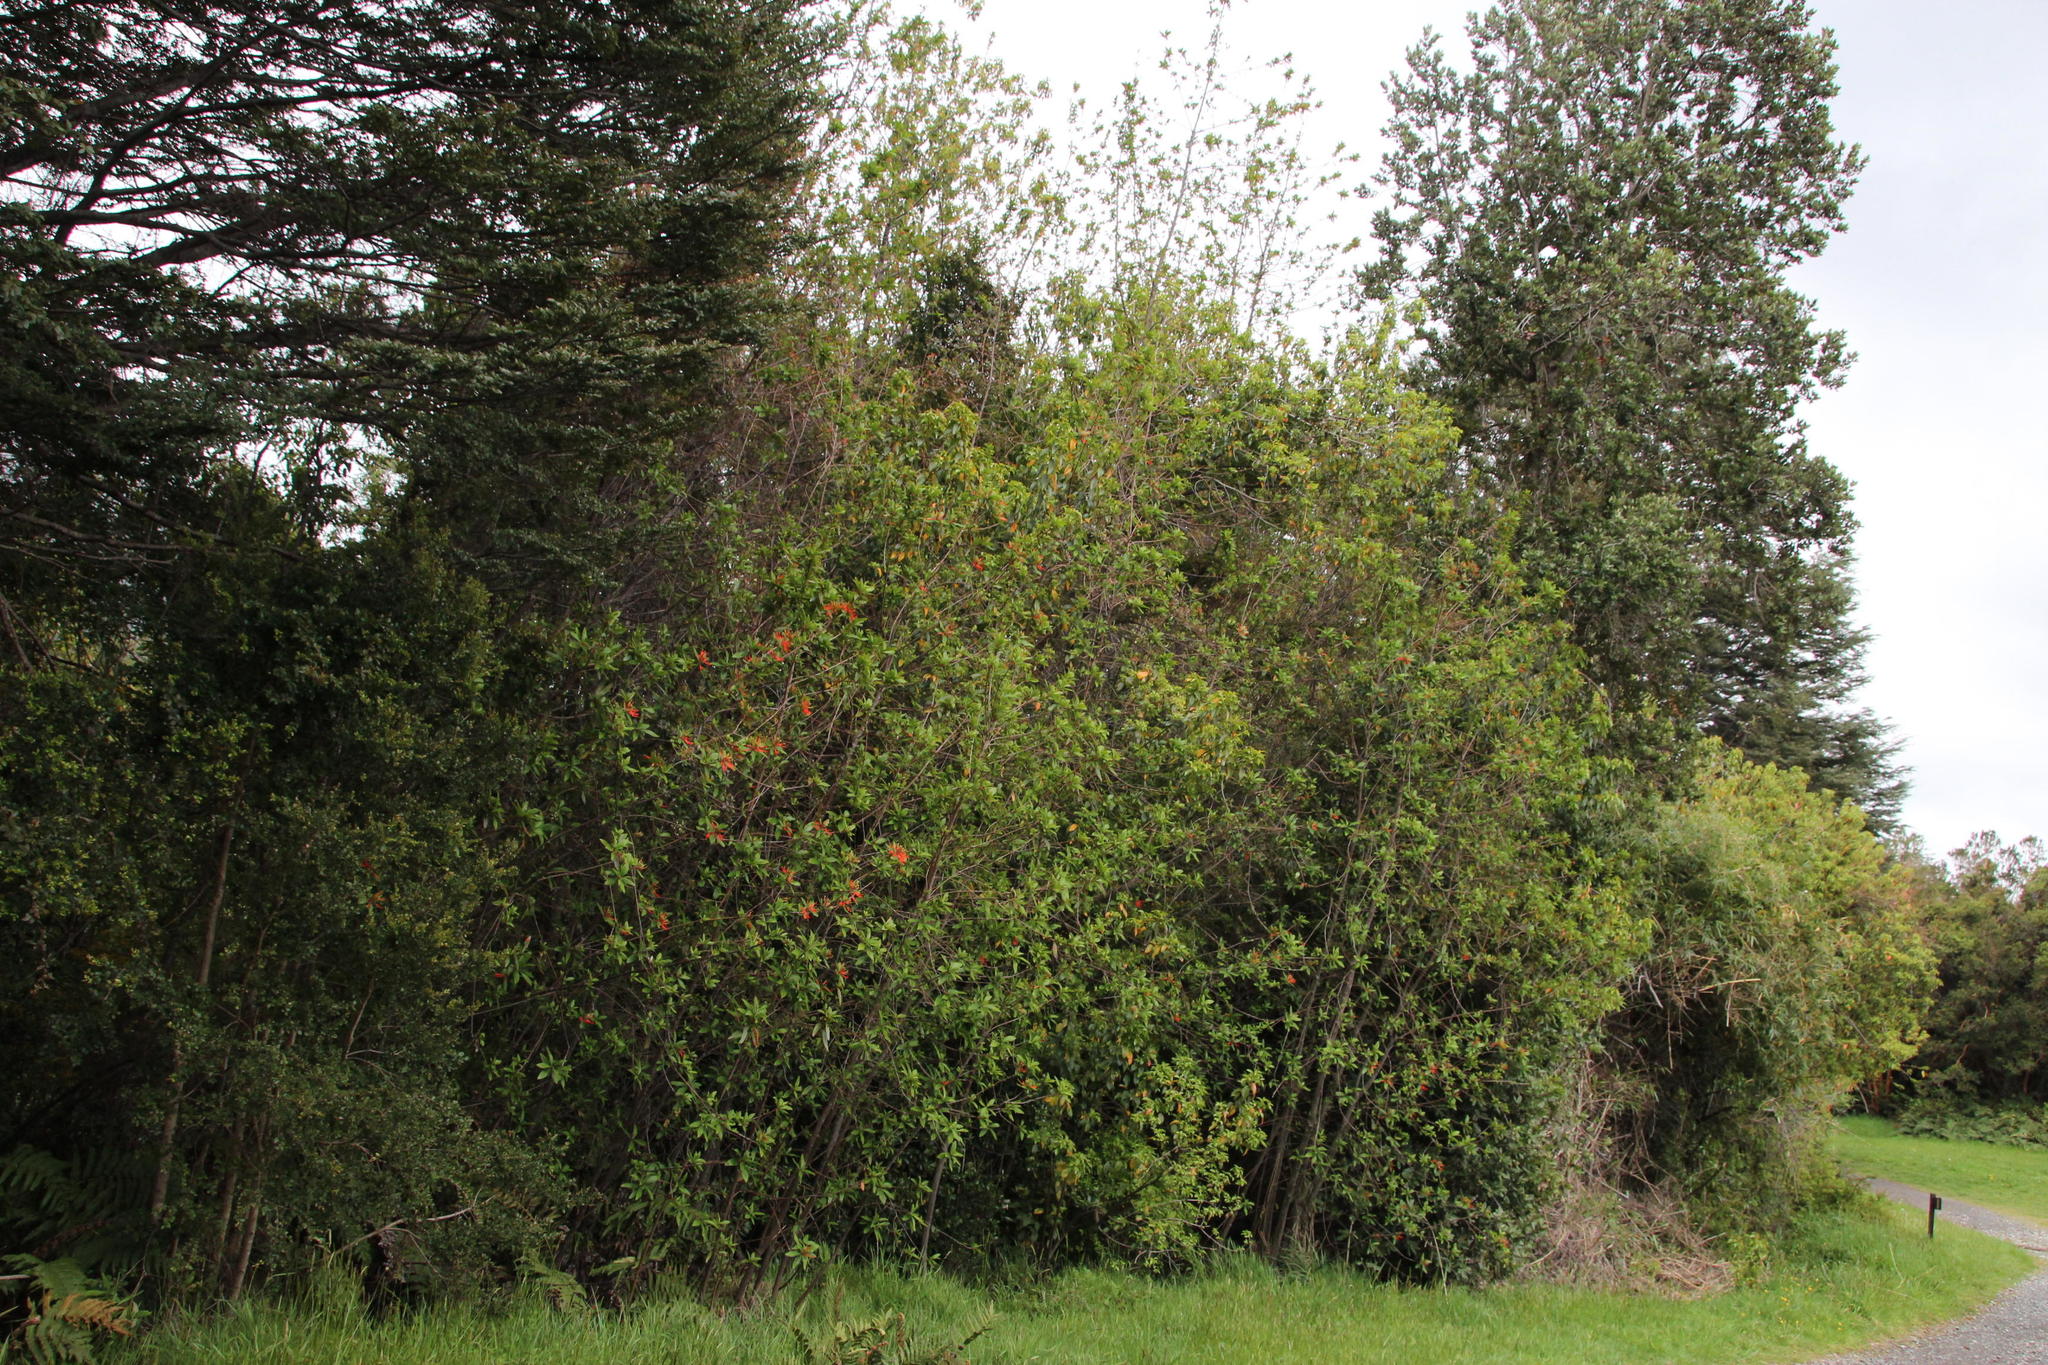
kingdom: Plantae
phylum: Tracheophyta
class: Magnoliopsida
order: Proteales
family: Proteaceae
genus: Embothrium
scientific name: Embothrium coccineum
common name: Chilean firebush
